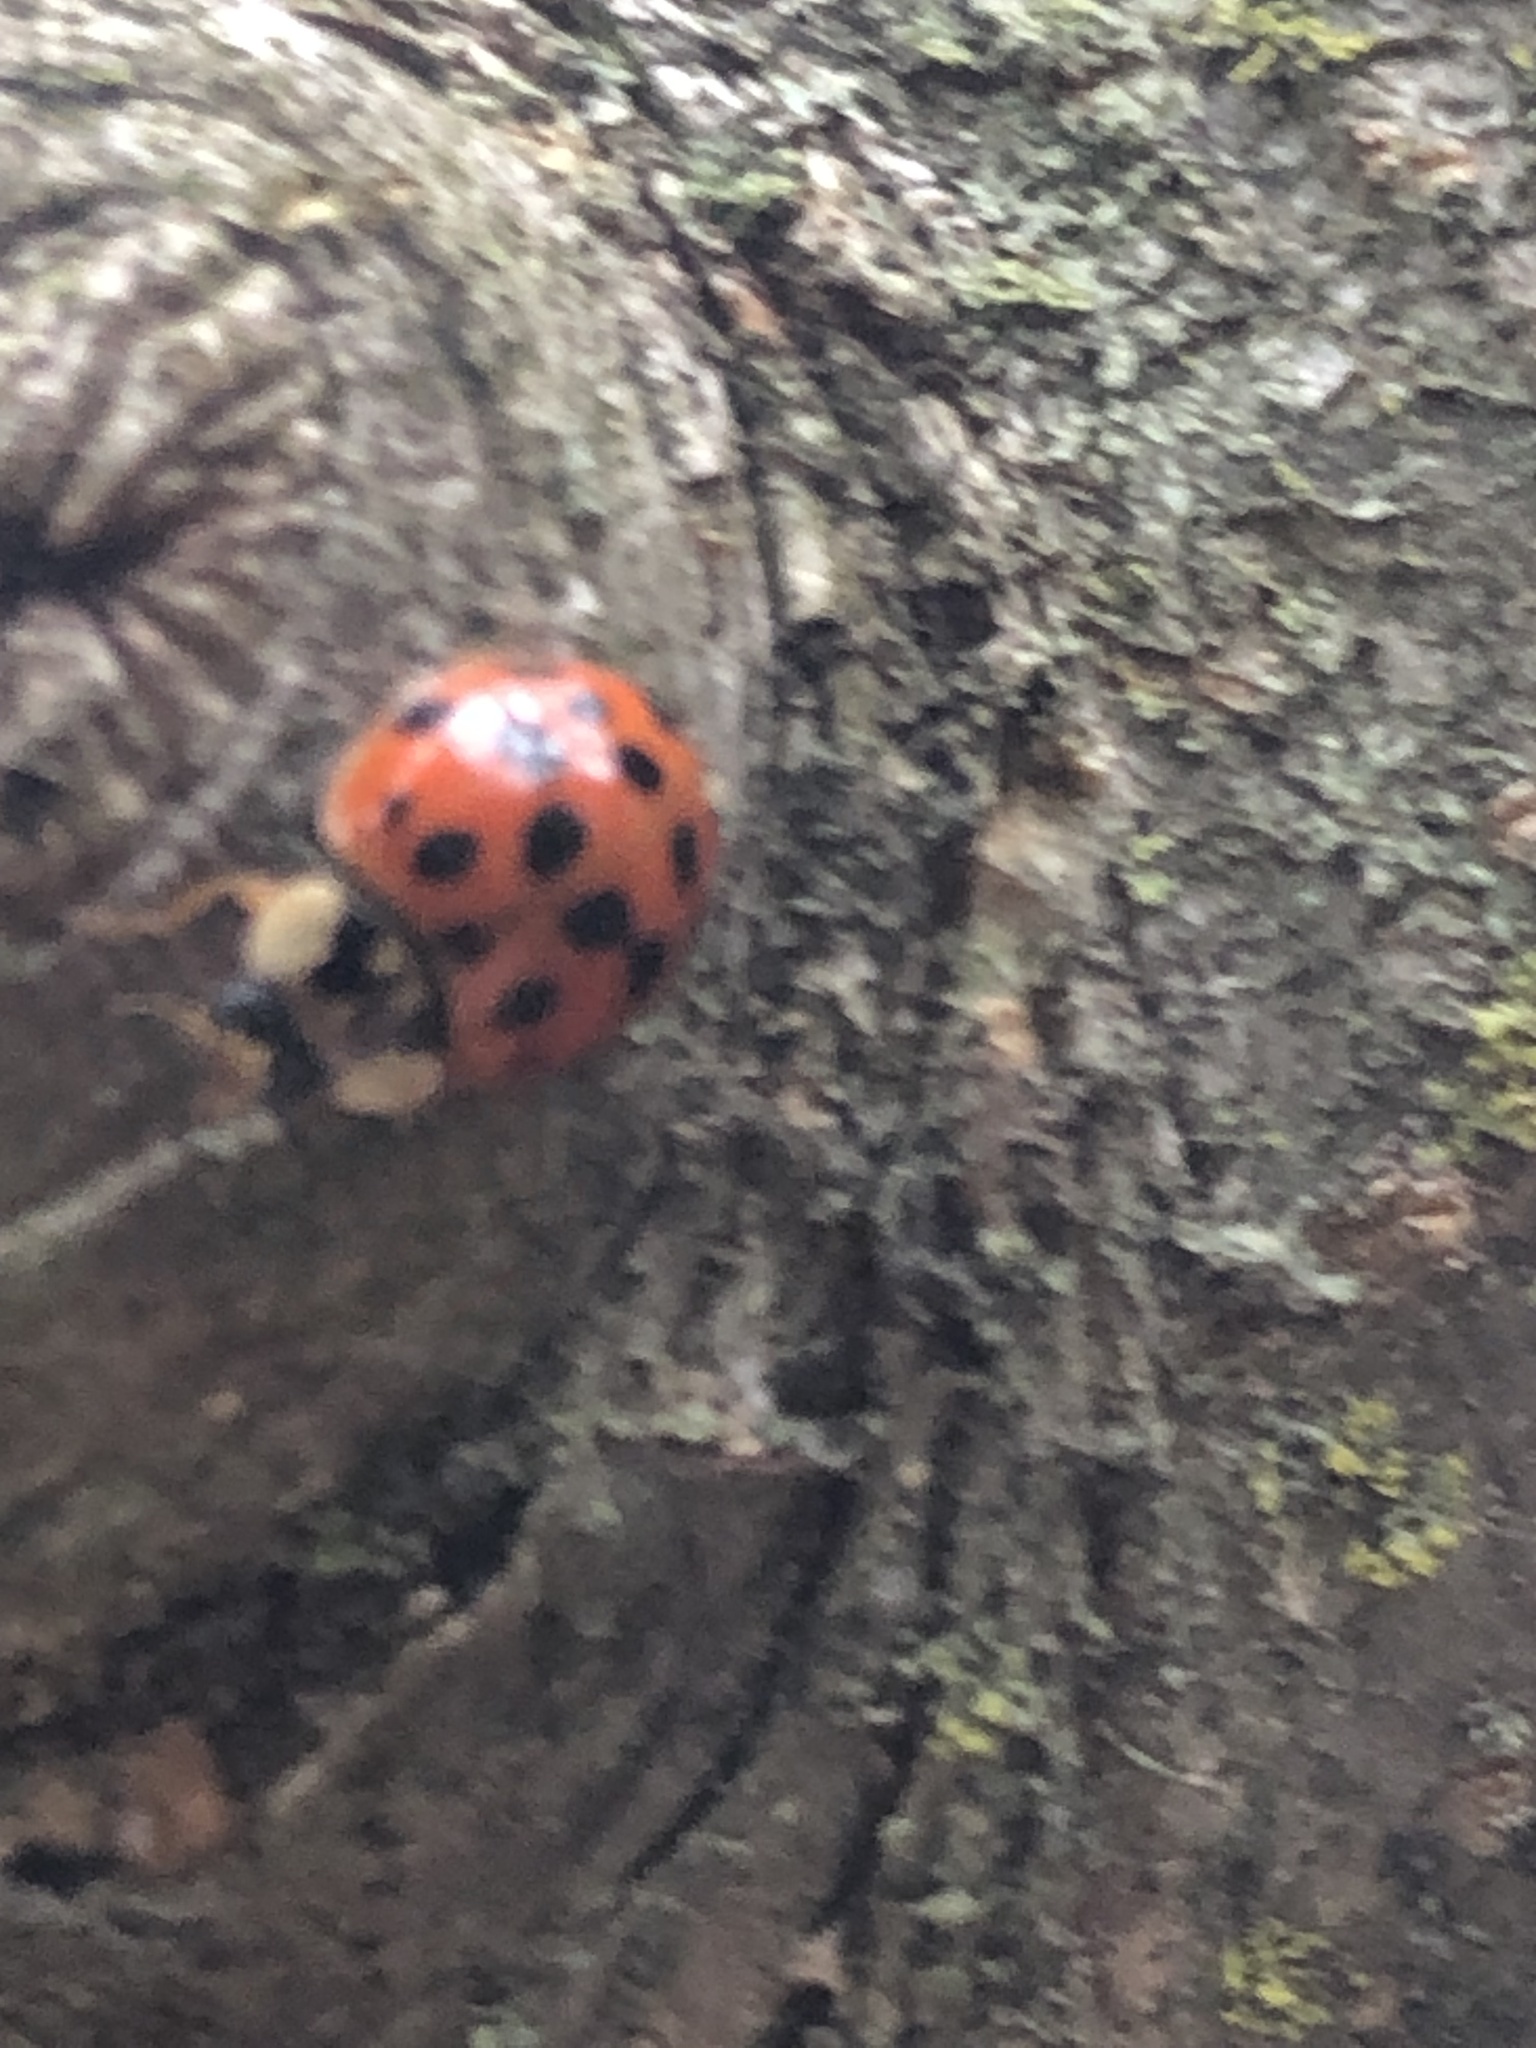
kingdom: Animalia
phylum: Arthropoda
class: Insecta
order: Coleoptera
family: Coccinellidae
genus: Harmonia
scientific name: Harmonia axyridis
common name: Harlequin ladybird
